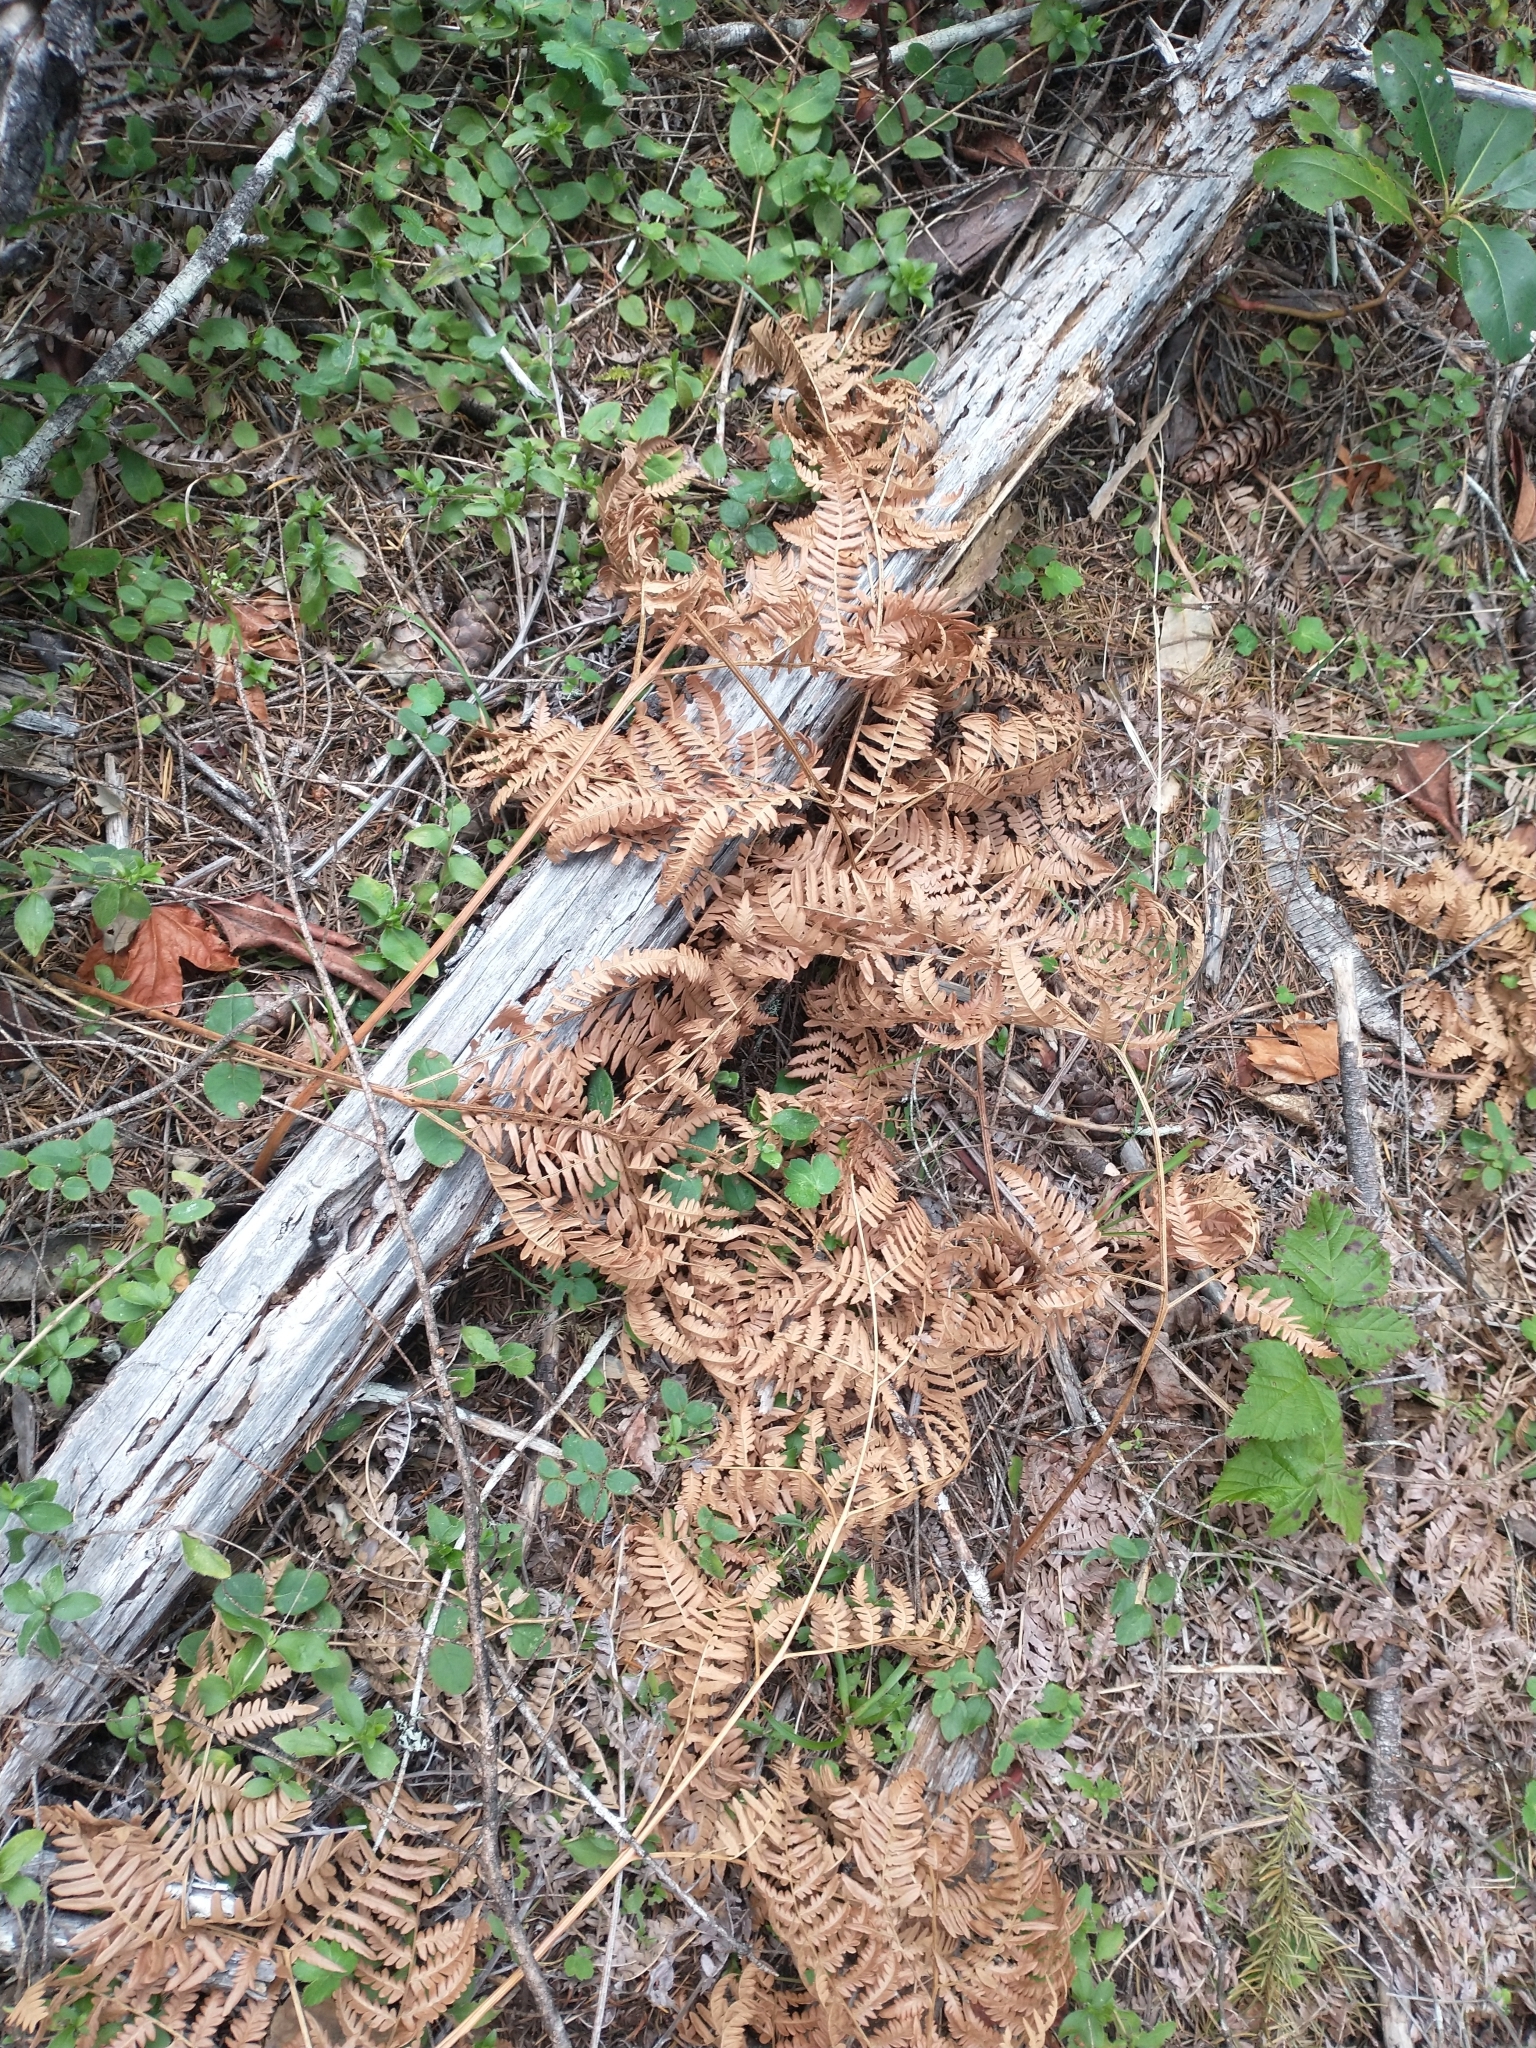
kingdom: Plantae
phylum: Tracheophyta
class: Polypodiopsida
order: Polypodiales
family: Dennstaedtiaceae
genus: Pteridium
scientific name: Pteridium aquilinum
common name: Bracken
